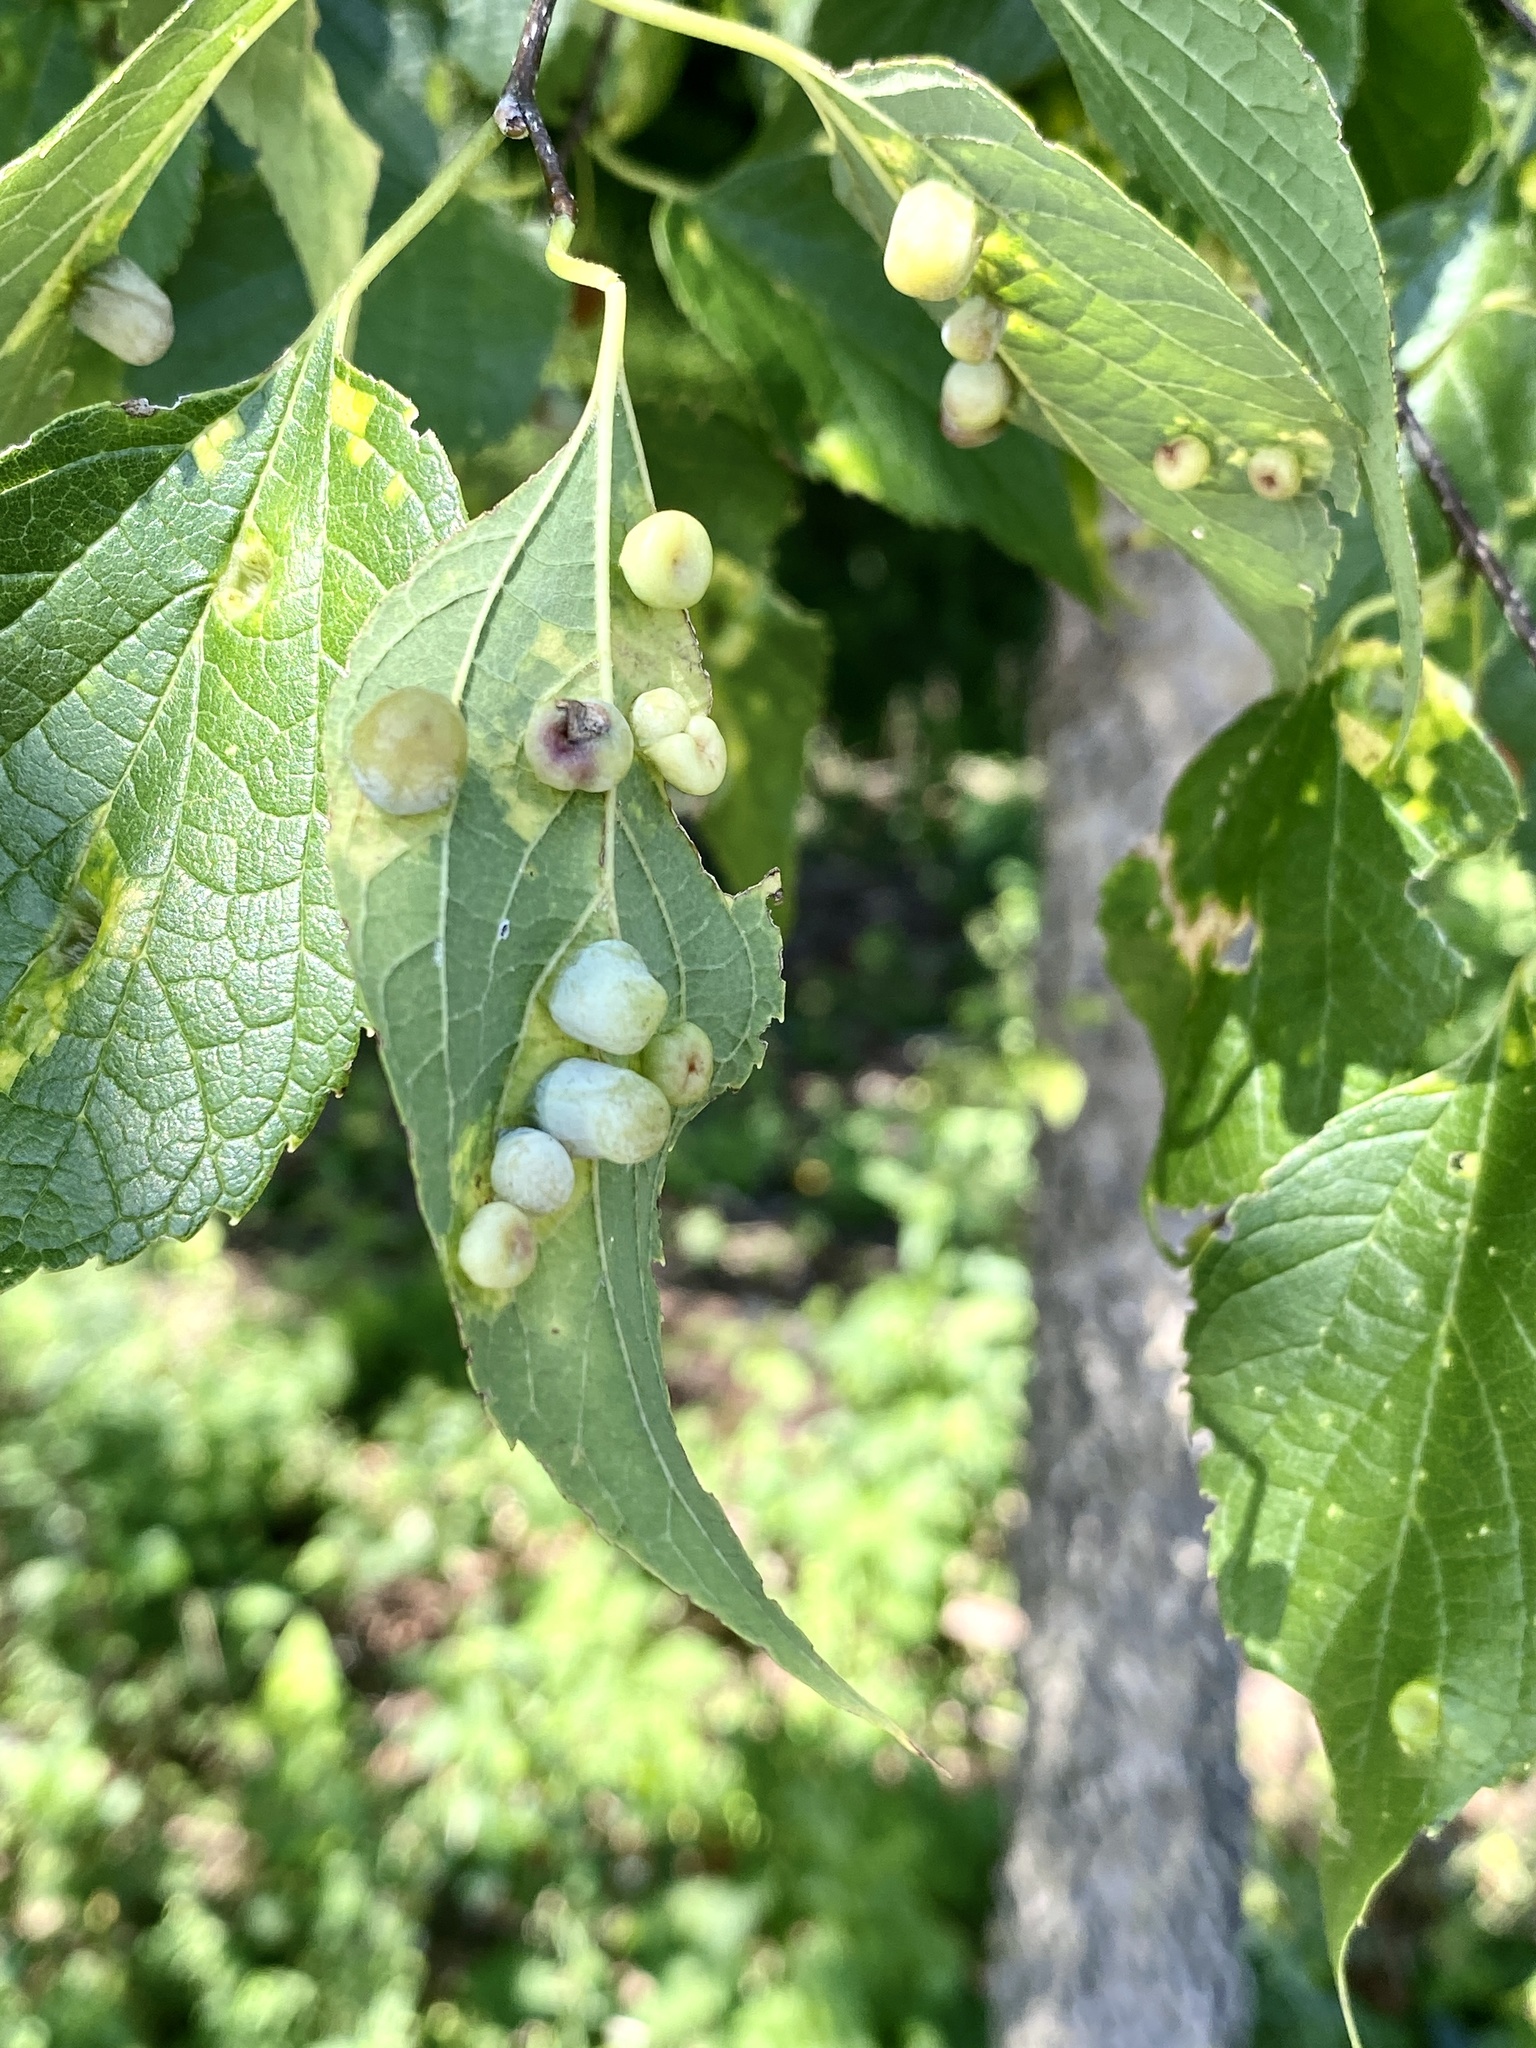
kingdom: Animalia
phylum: Arthropoda
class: Insecta
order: Hemiptera
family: Aphalaridae
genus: Pachypsylla
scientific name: Pachypsylla celtidismamma
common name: Hackberry nipplegall psyllid
